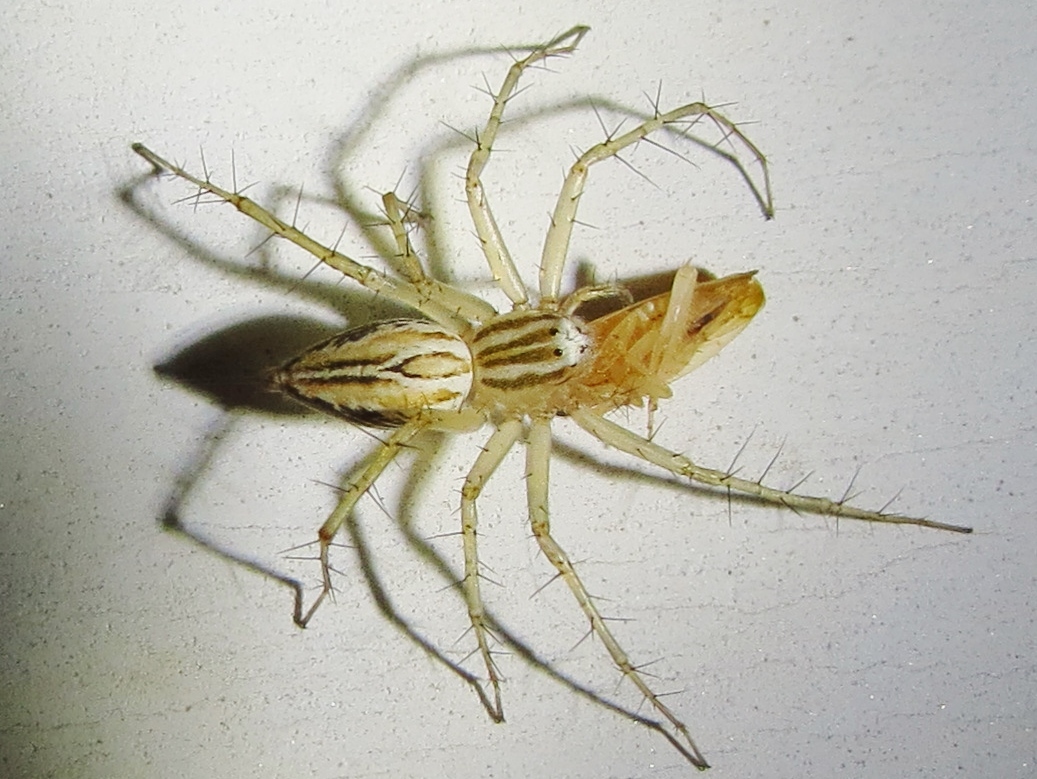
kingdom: Animalia
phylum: Arthropoda
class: Arachnida
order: Araneae
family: Oxyopidae
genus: Oxyopes
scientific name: Oxyopes salticus
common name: Lynx spiders
